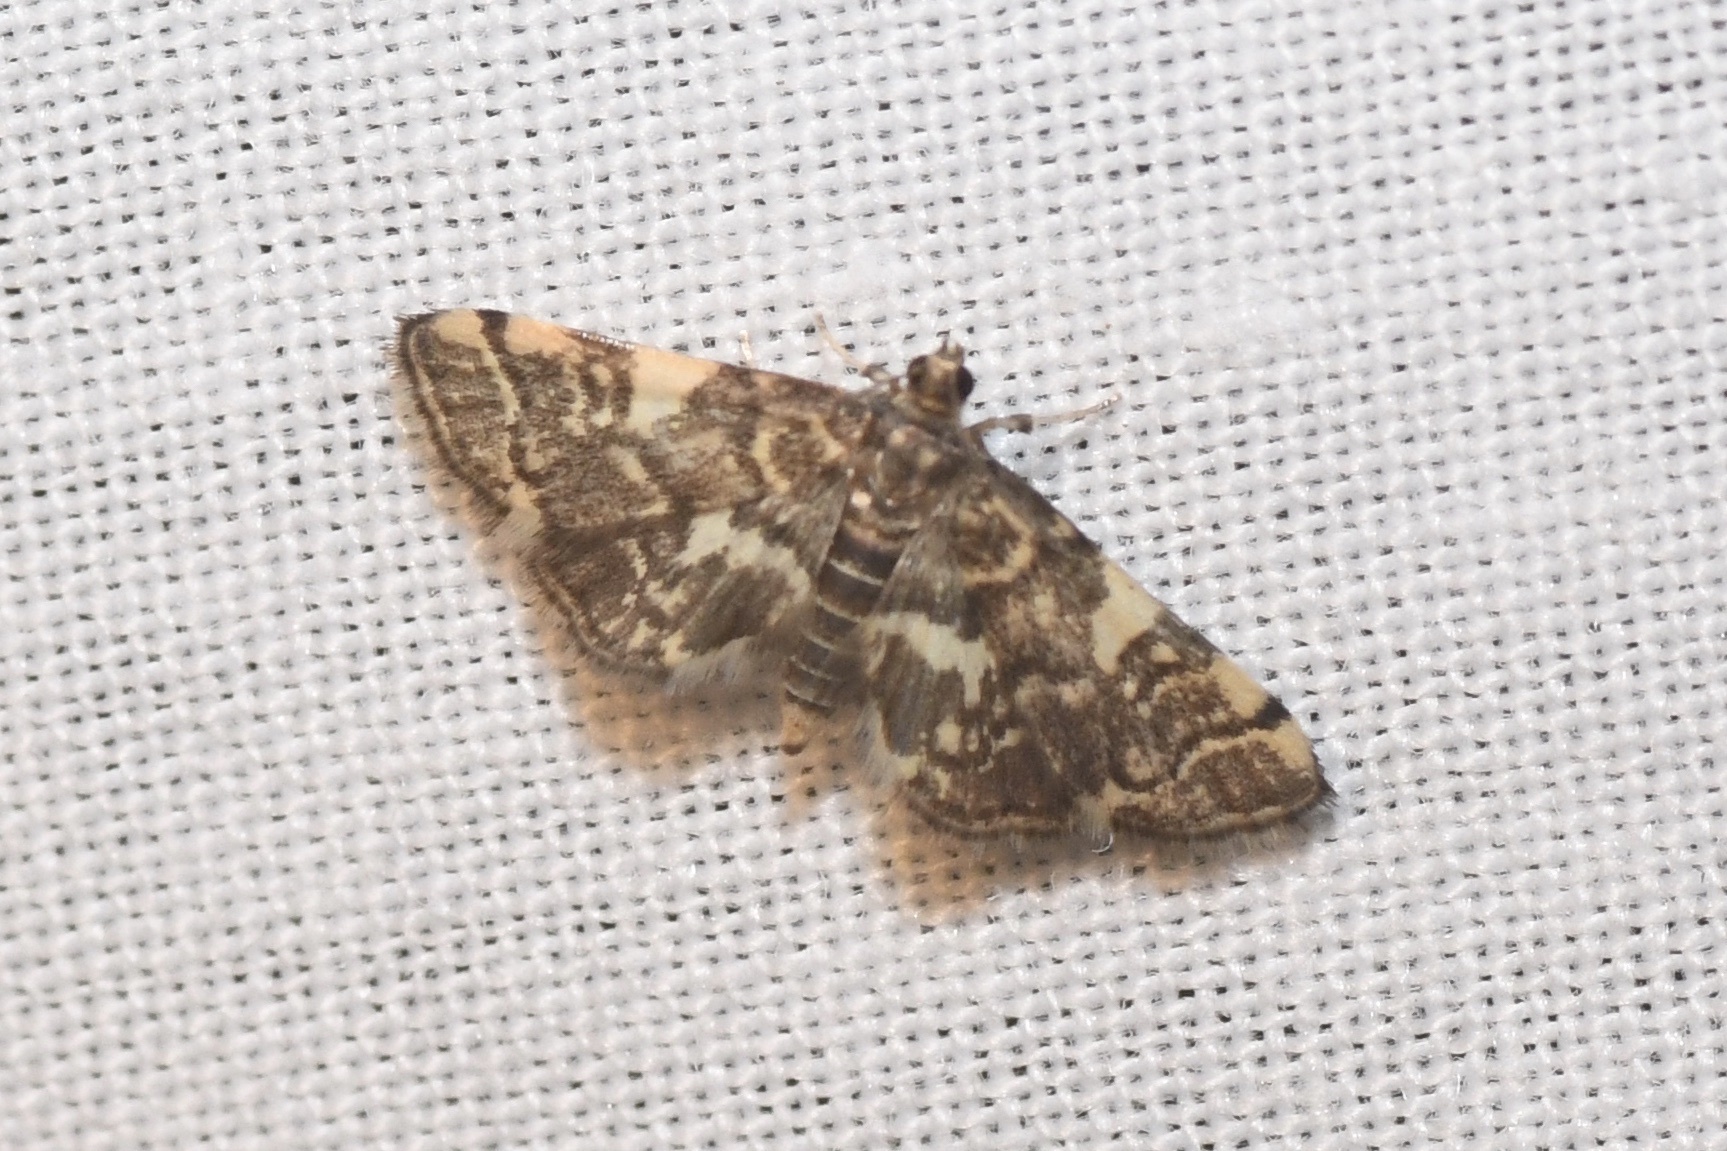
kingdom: Animalia
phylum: Arthropoda
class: Insecta
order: Lepidoptera
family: Crambidae
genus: Anageshna
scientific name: Anageshna primordialis
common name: Yellow-spotted webworm moth
